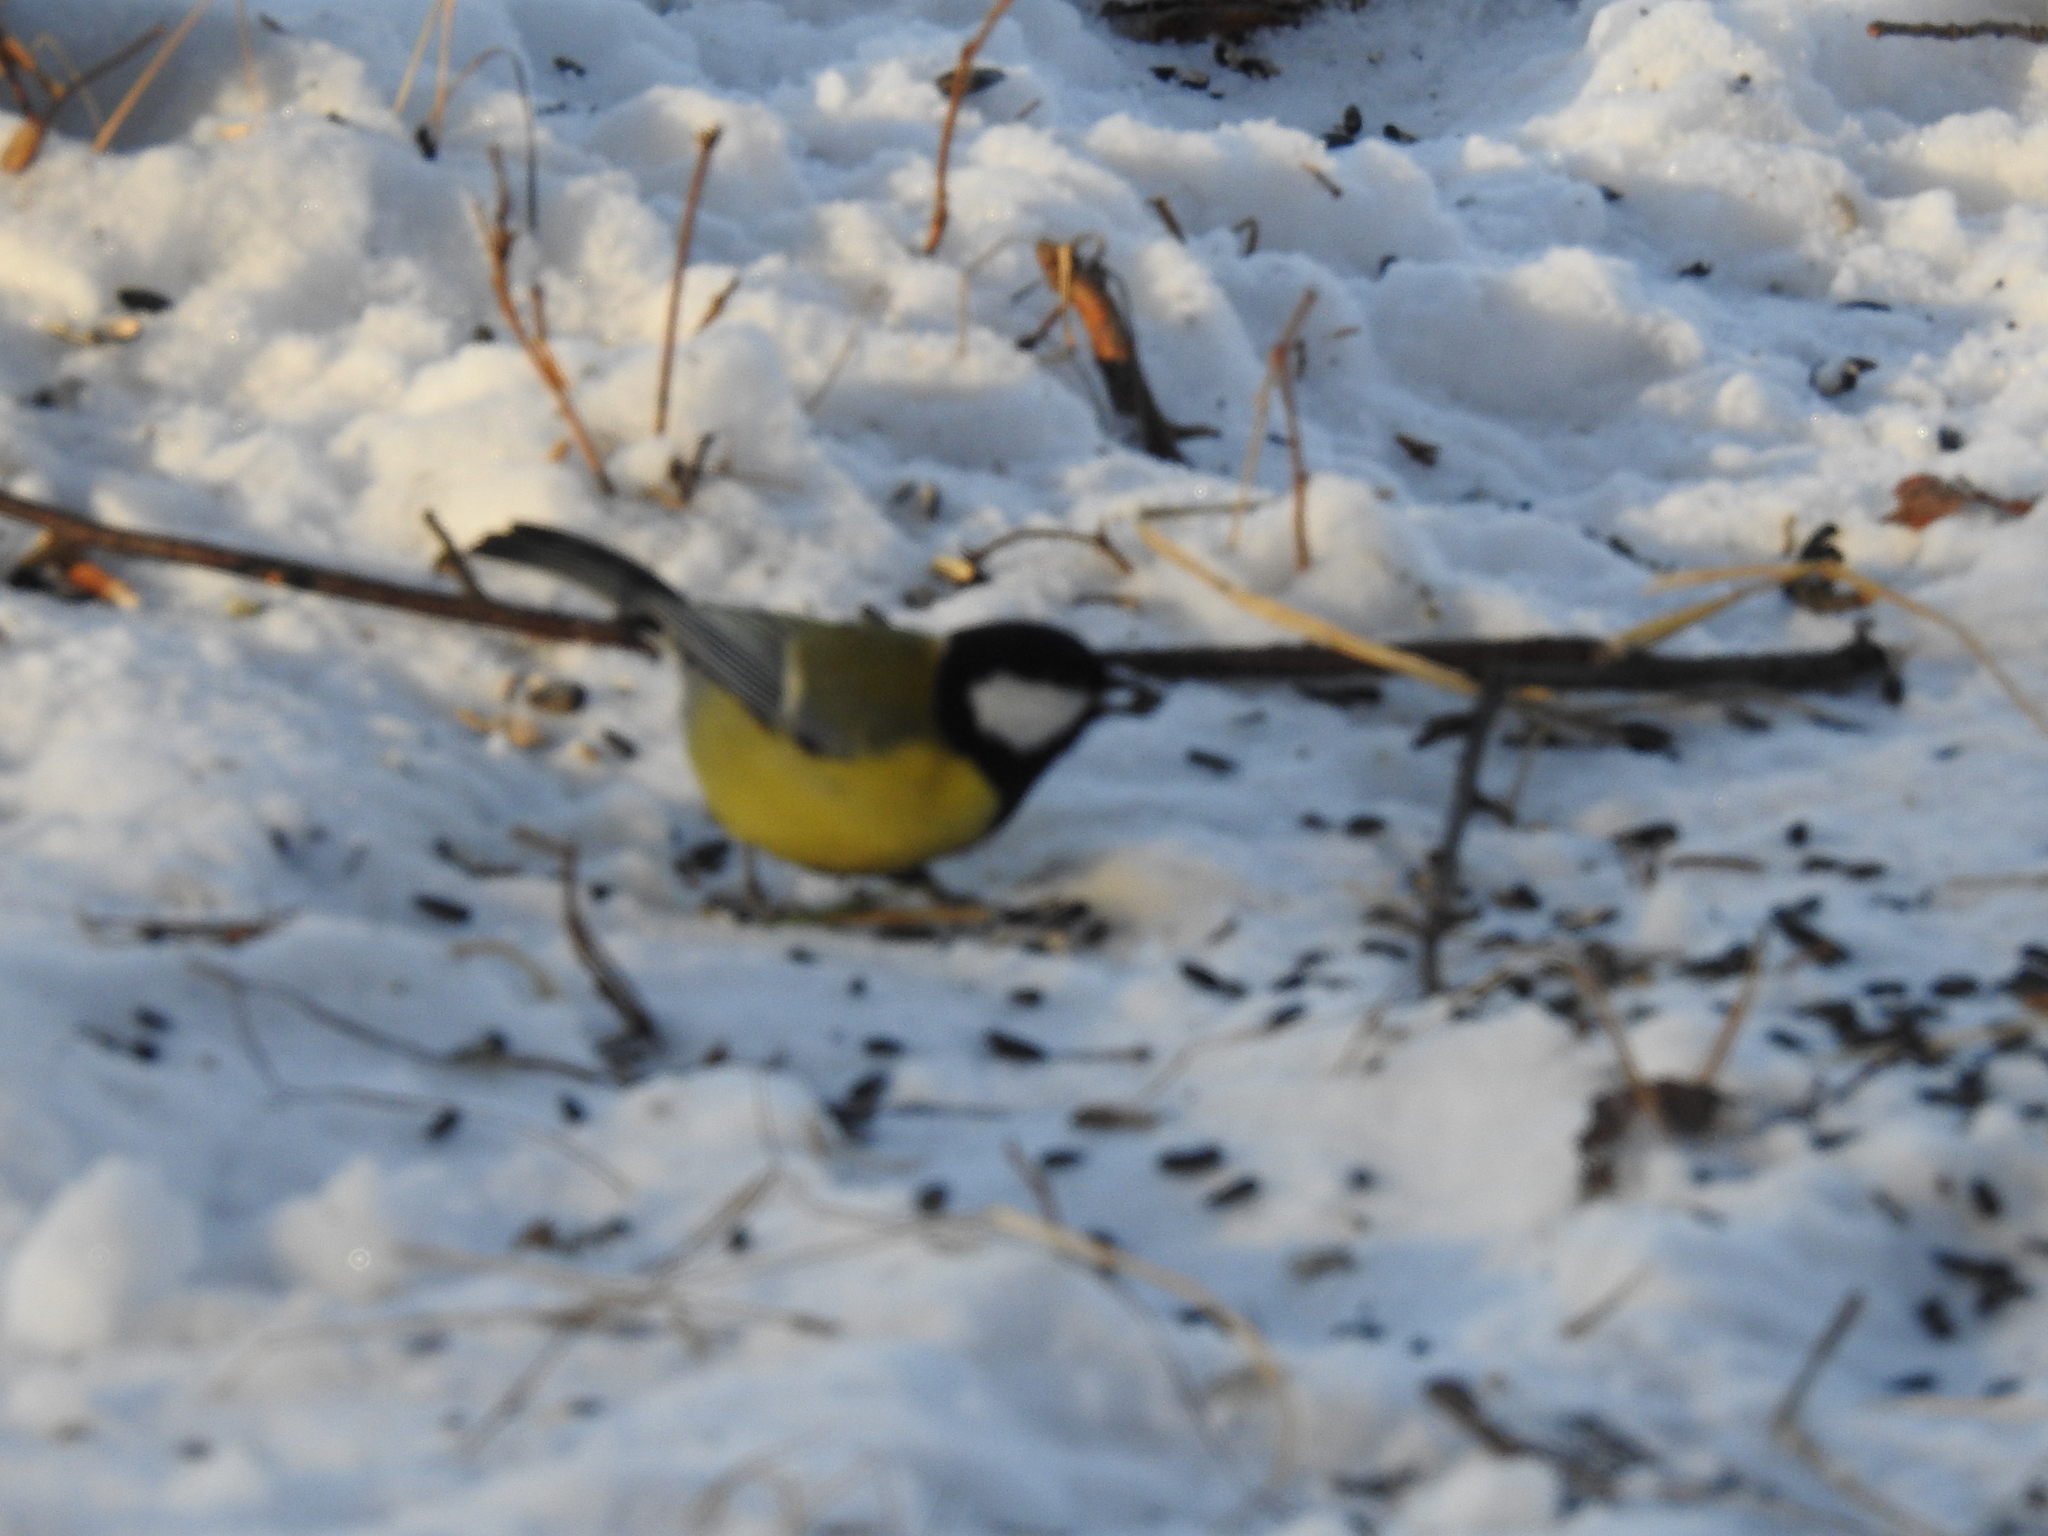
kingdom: Animalia
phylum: Chordata
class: Aves
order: Passeriformes
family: Paridae
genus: Parus
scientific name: Parus major
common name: Great tit
